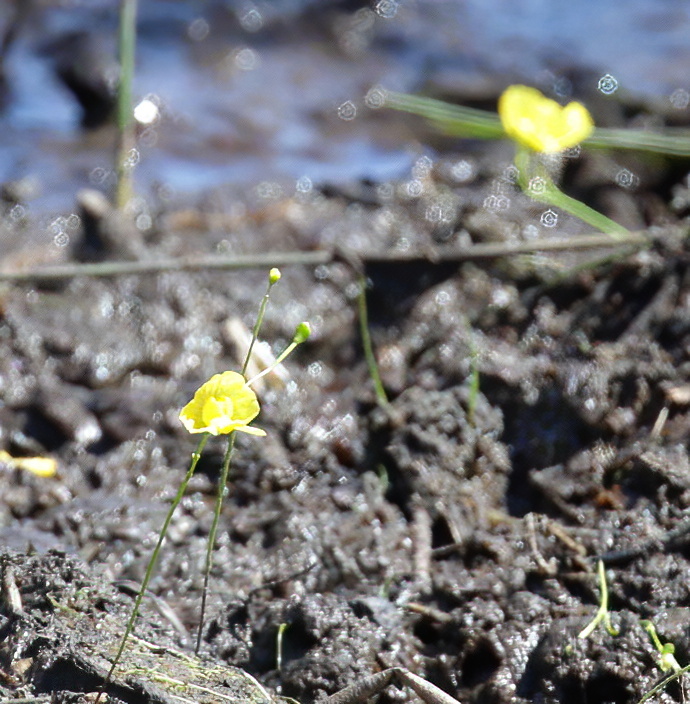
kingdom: Plantae
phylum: Tracheophyta
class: Magnoliopsida
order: Lamiales
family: Lentibulariaceae
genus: Utricularia
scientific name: Utricularia gibba
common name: Humped bladderwort
